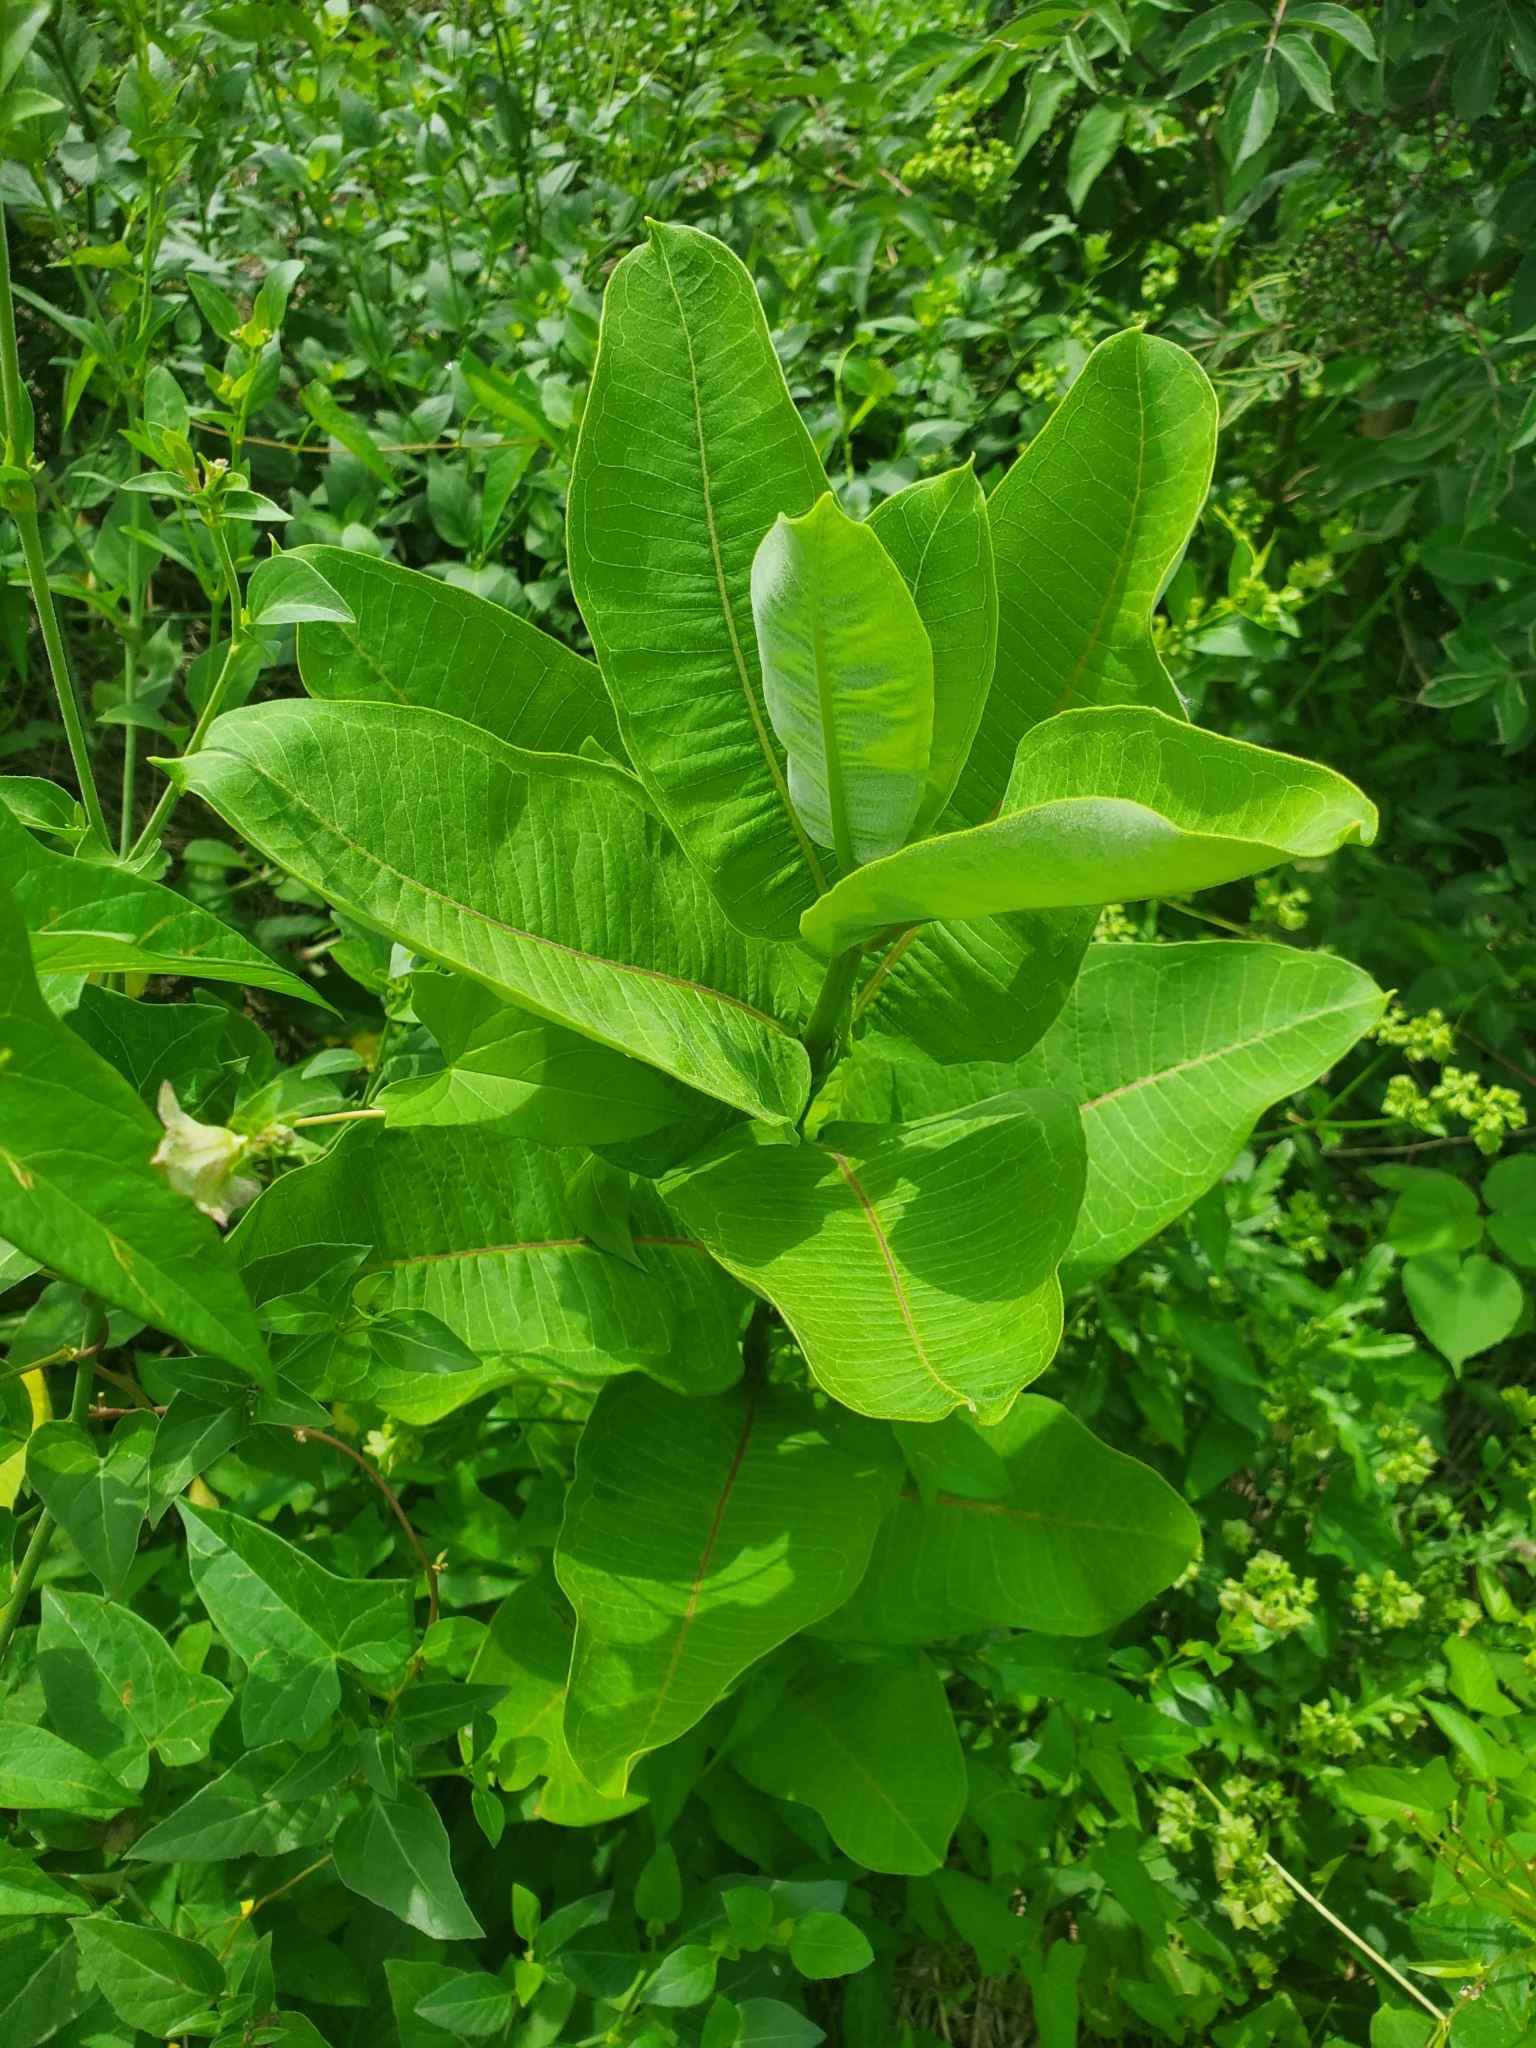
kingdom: Plantae
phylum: Tracheophyta
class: Magnoliopsida
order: Gentianales
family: Apocynaceae
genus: Asclepias
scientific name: Asclepias syriaca
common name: Common milkweed
